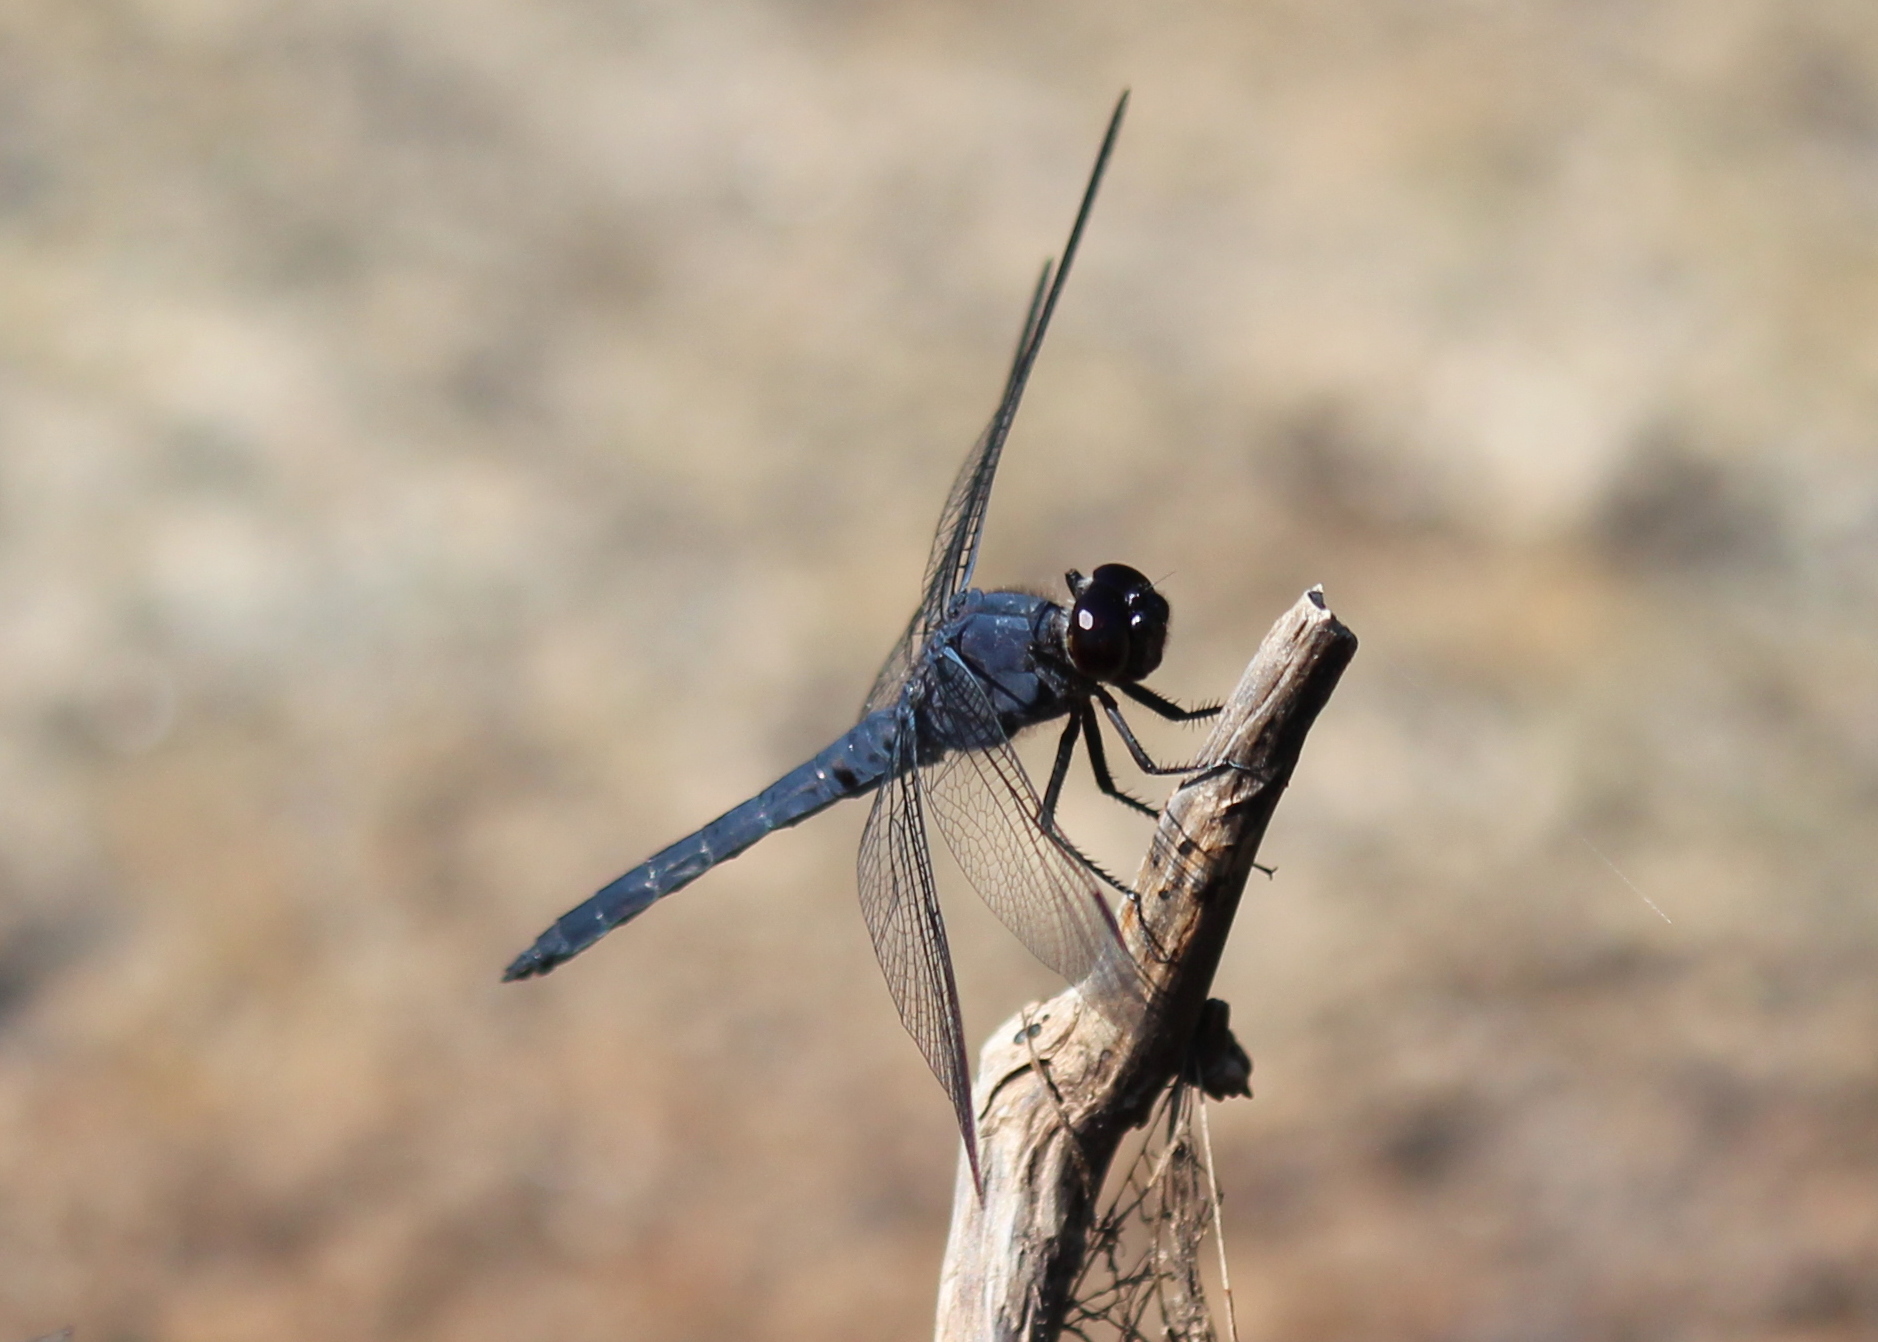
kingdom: Animalia
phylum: Arthropoda
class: Insecta
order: Odonata
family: Libellulidae
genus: Libellula
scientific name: Libellula incesta
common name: Slaty skimmer
